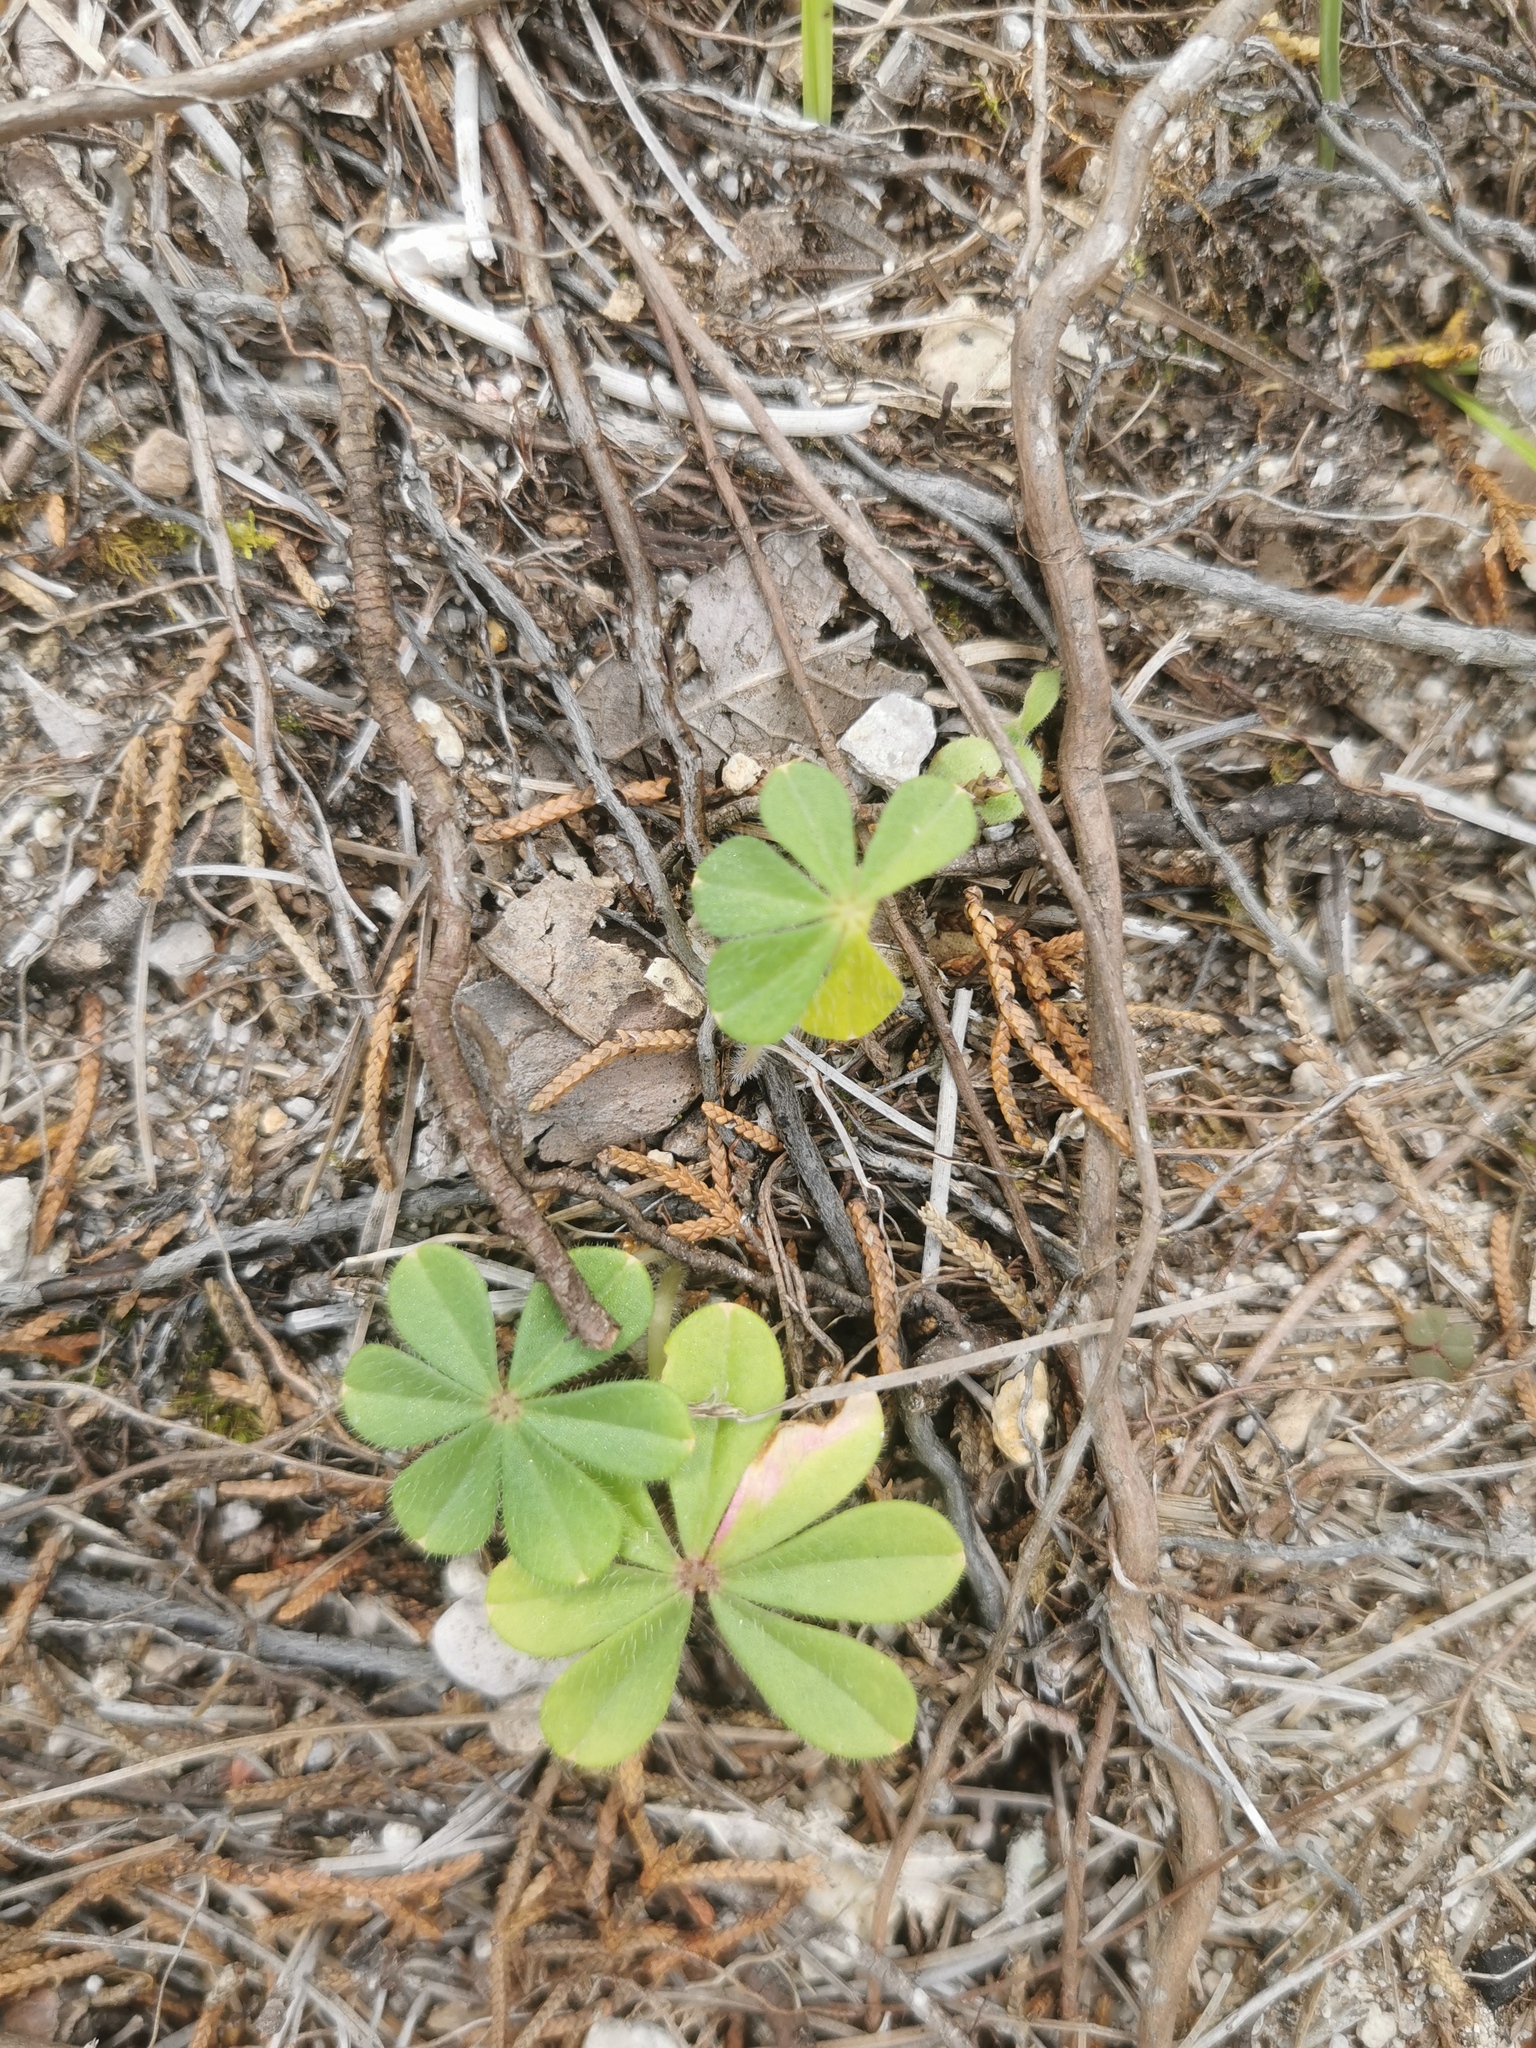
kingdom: Plantae
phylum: Tracheophyta
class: Magnoliopsida
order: Oxalidales
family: Oxalidaceae
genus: Oxalis
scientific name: Oxalis hernandesii
